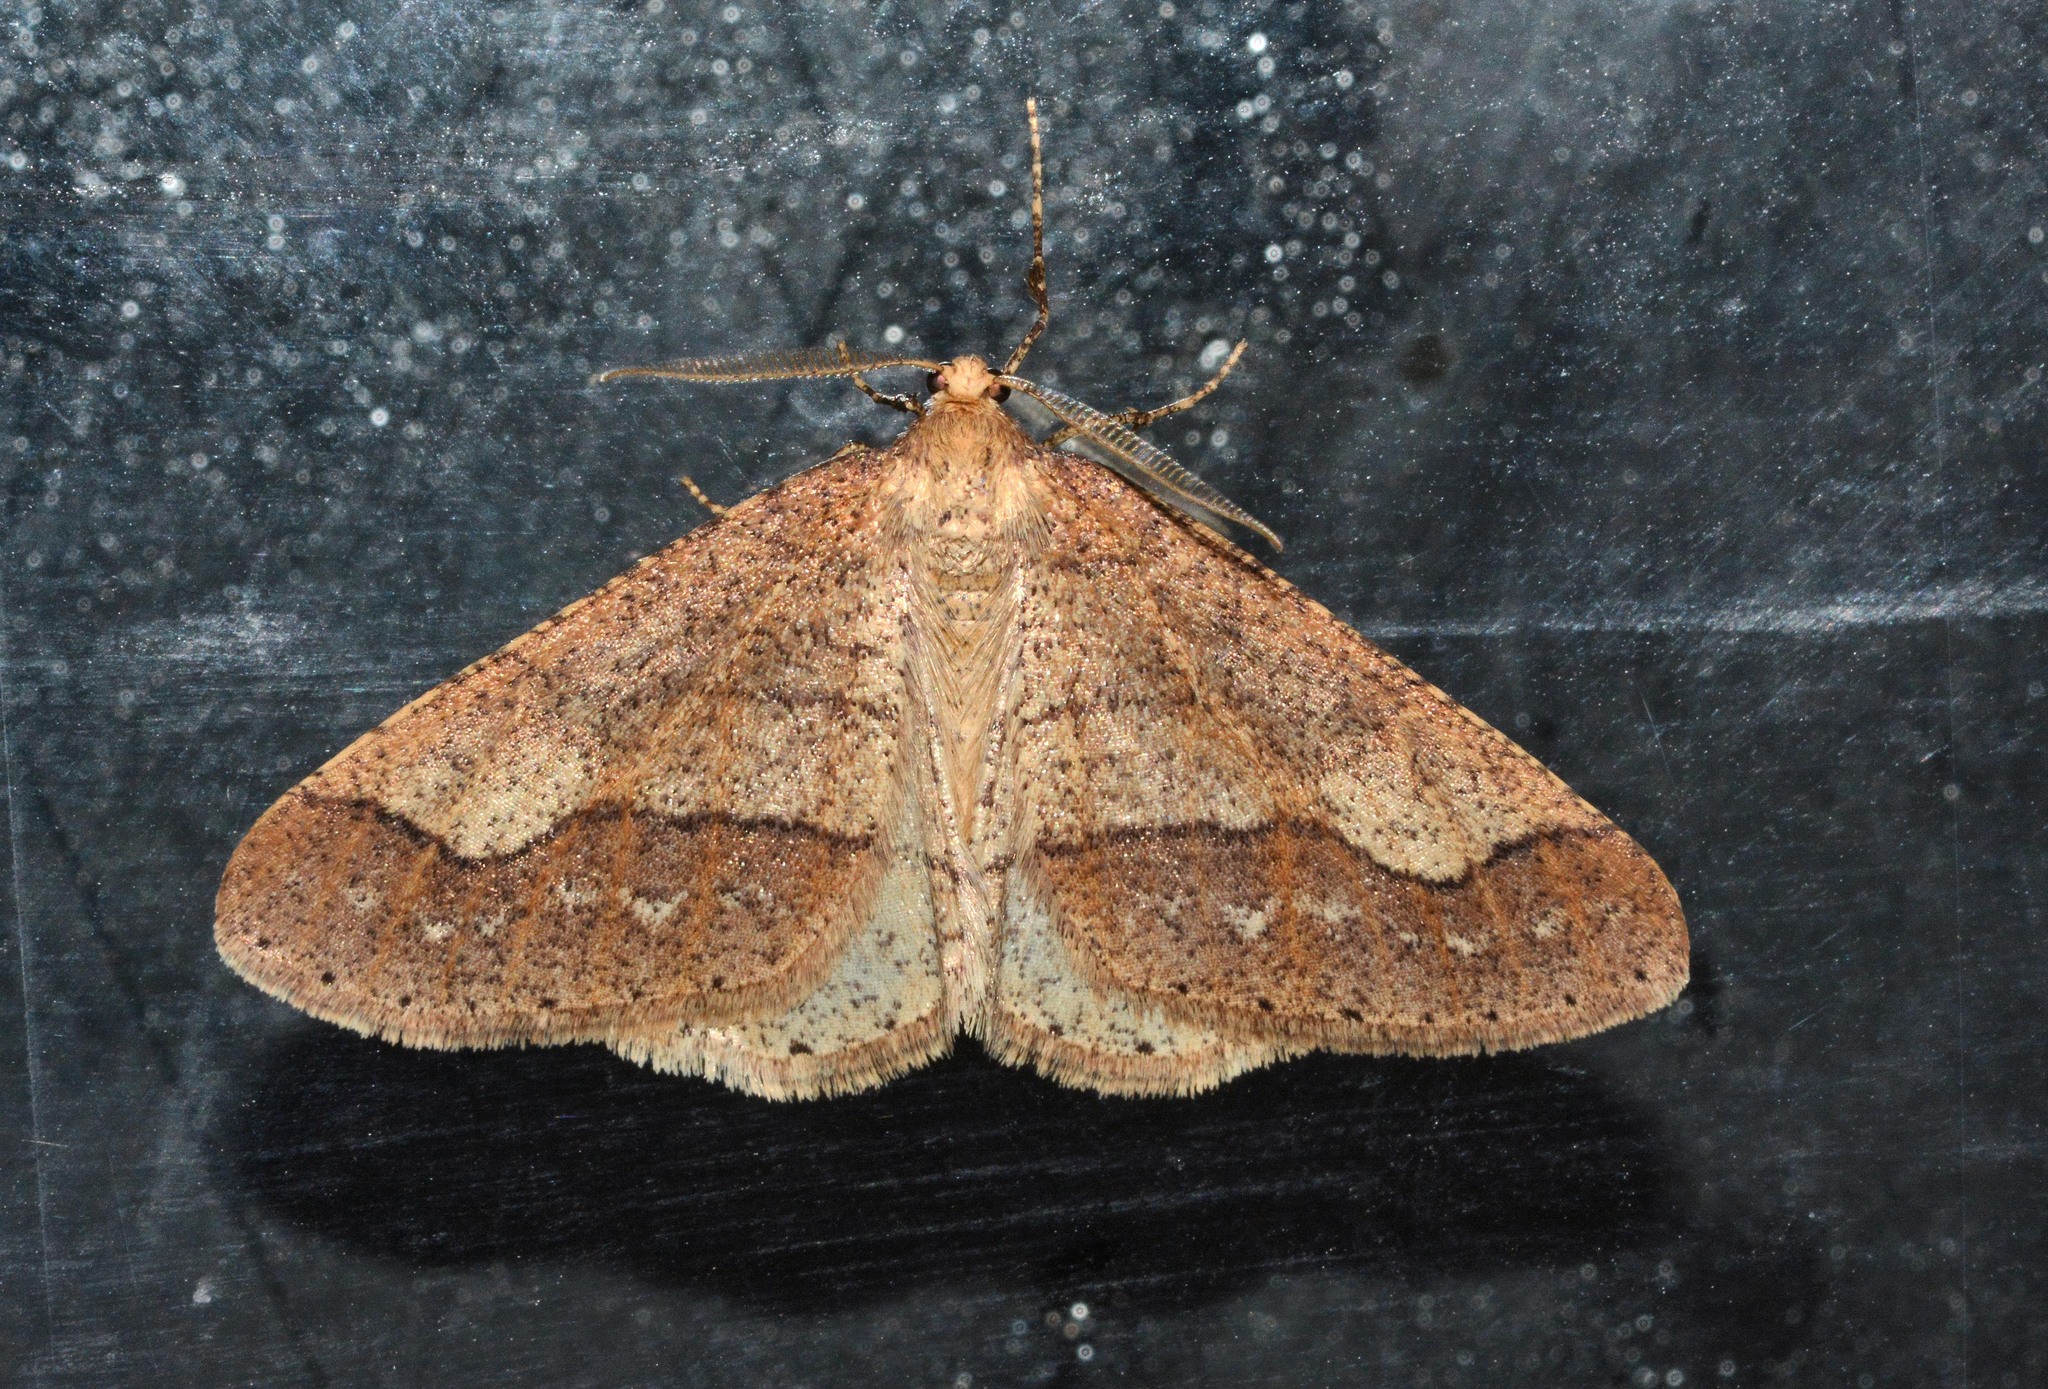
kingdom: Animalia
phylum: Arthropoda
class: Insecta
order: Lepidoptera
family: Geometridae
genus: Agriopis
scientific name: Agriopis marginaria
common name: Dotted border
